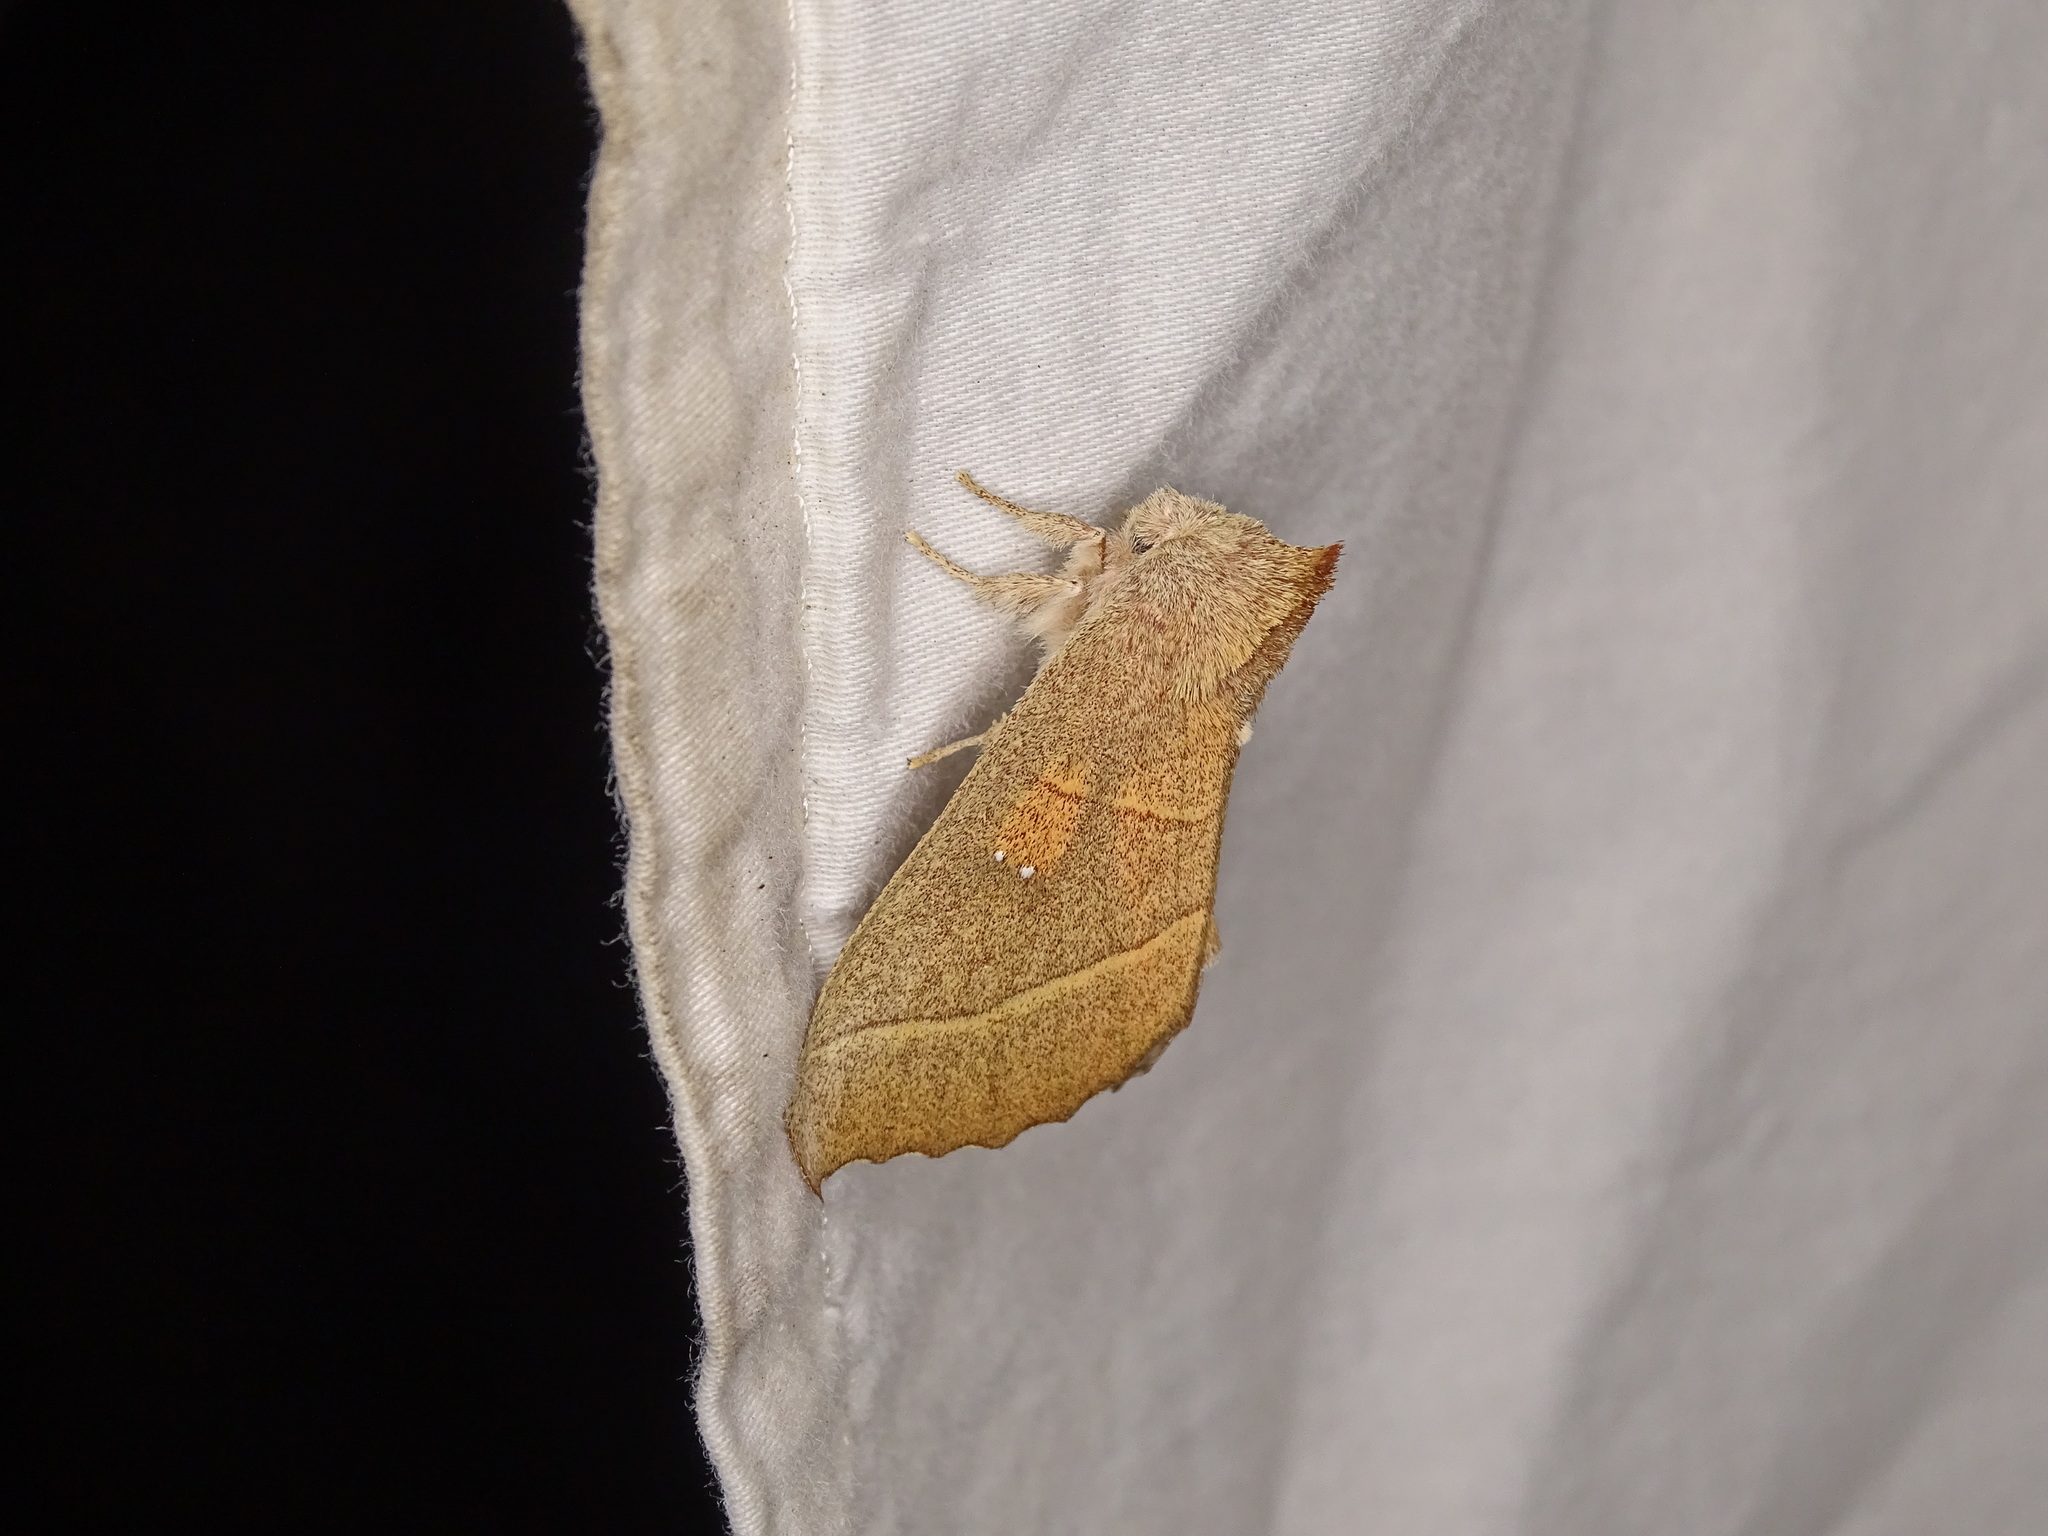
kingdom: Animalia
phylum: Arthropoda
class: Insecta
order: Lepidoptera
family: Notodontidae
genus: Nadata
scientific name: Nadata gibbosa
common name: White-dotted prominent
